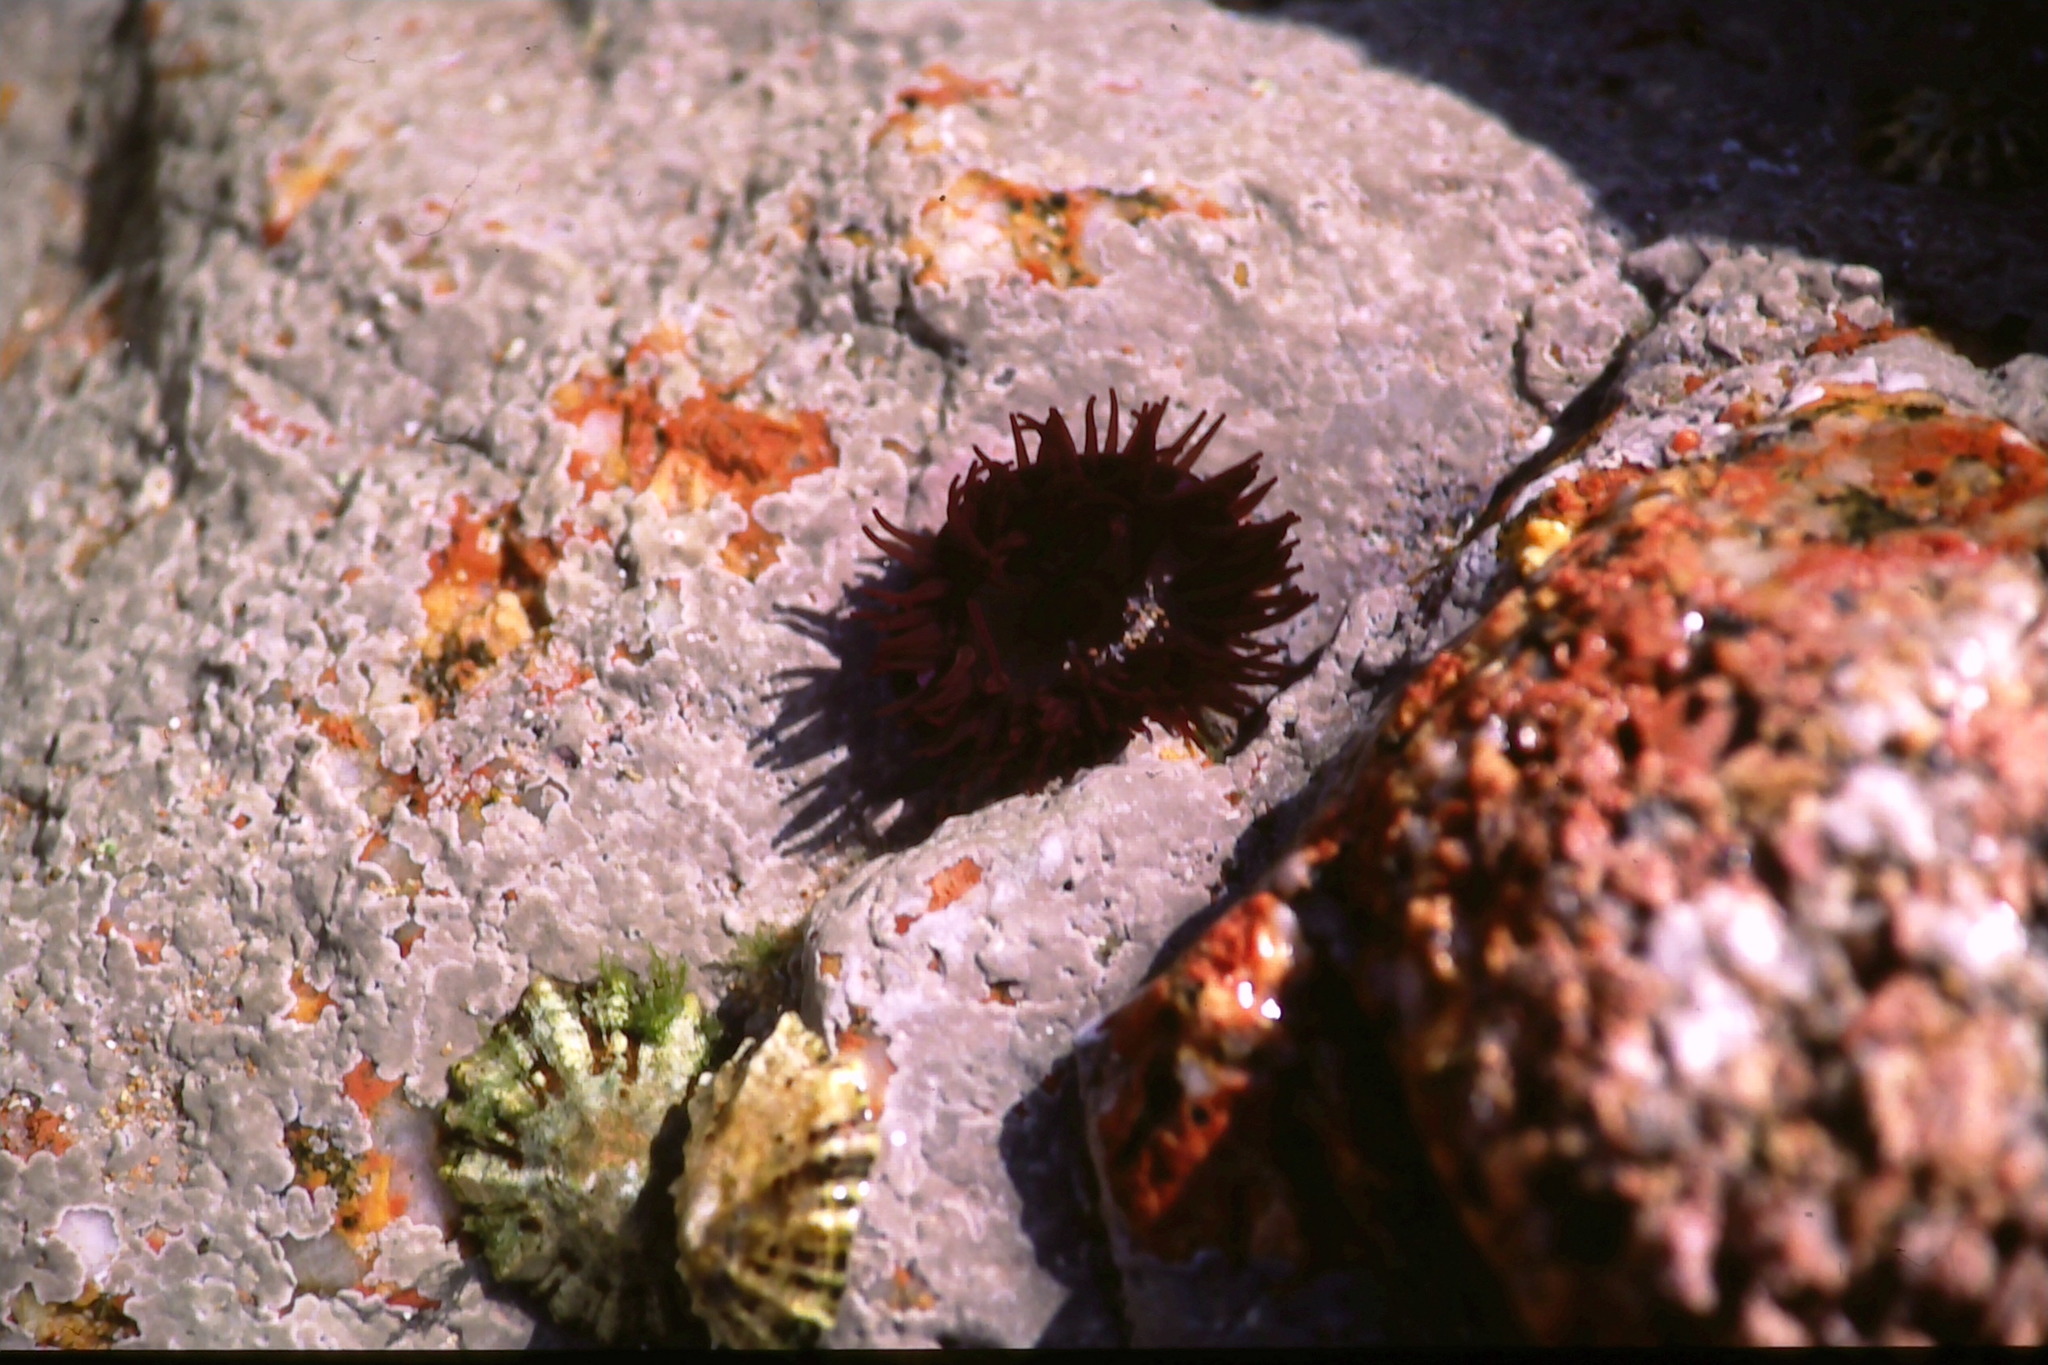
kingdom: Animalia
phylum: Cnidaria
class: Anthozoa
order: Actiniaria
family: Actiniidae
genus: Actinia
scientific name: Actinia equina
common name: Beadlet anemone
